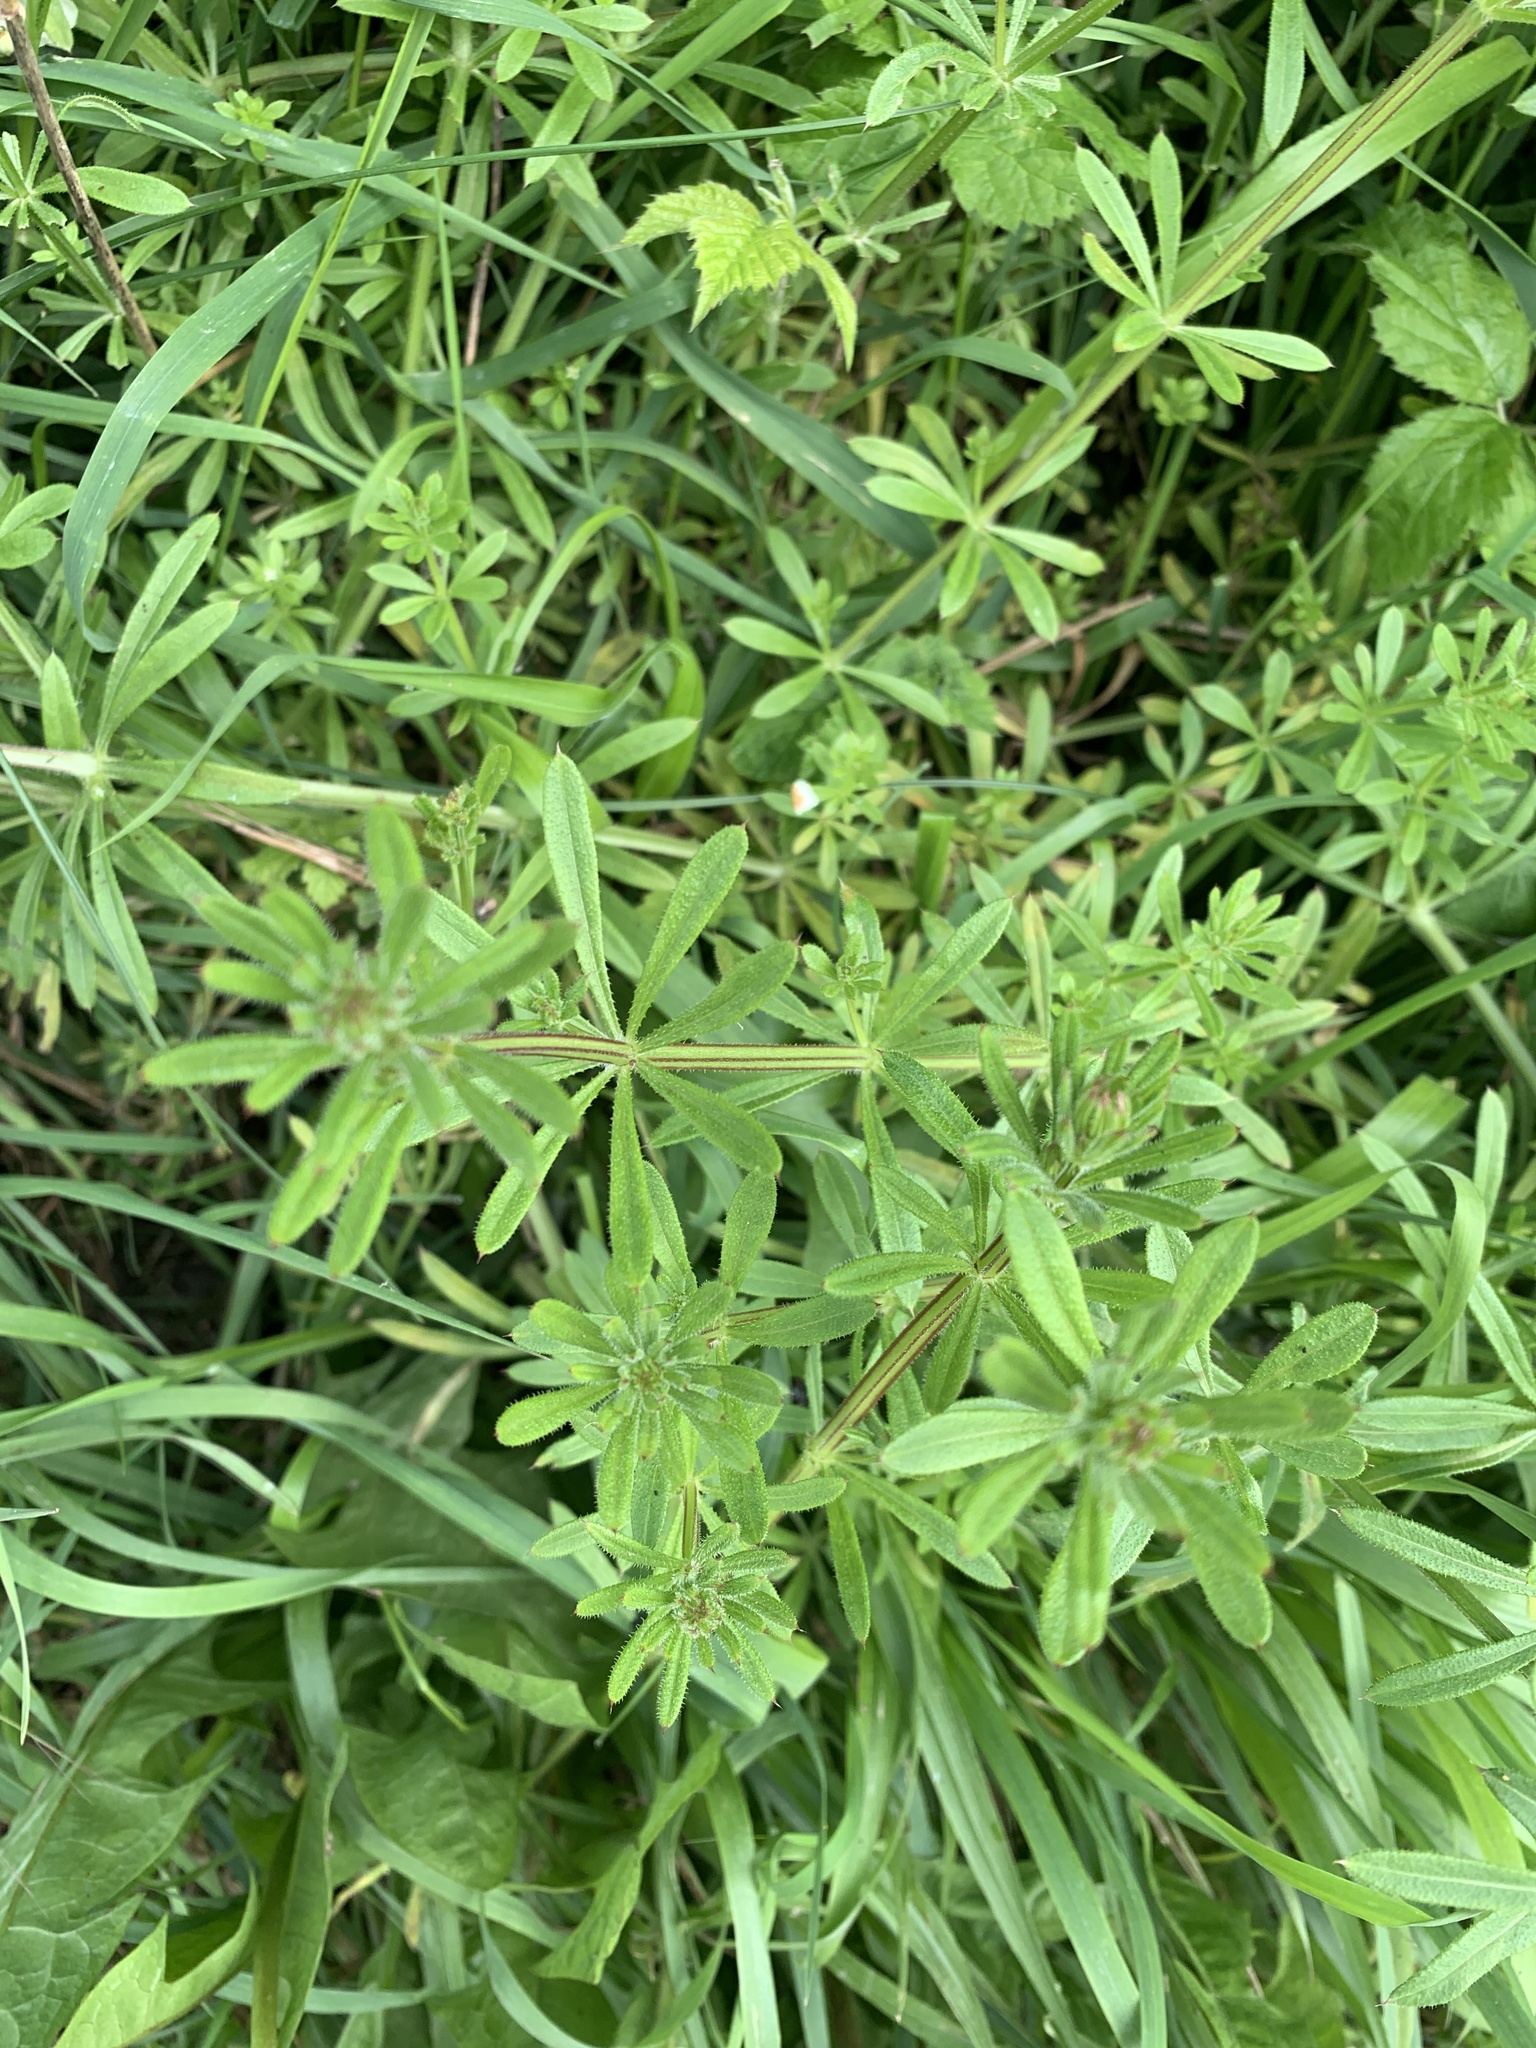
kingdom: Plantae
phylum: Tracheophyta
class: Magnoliopsida
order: Gentianales
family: Rubiaceae
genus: Galium
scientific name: Galium aparine
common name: Cleavers
